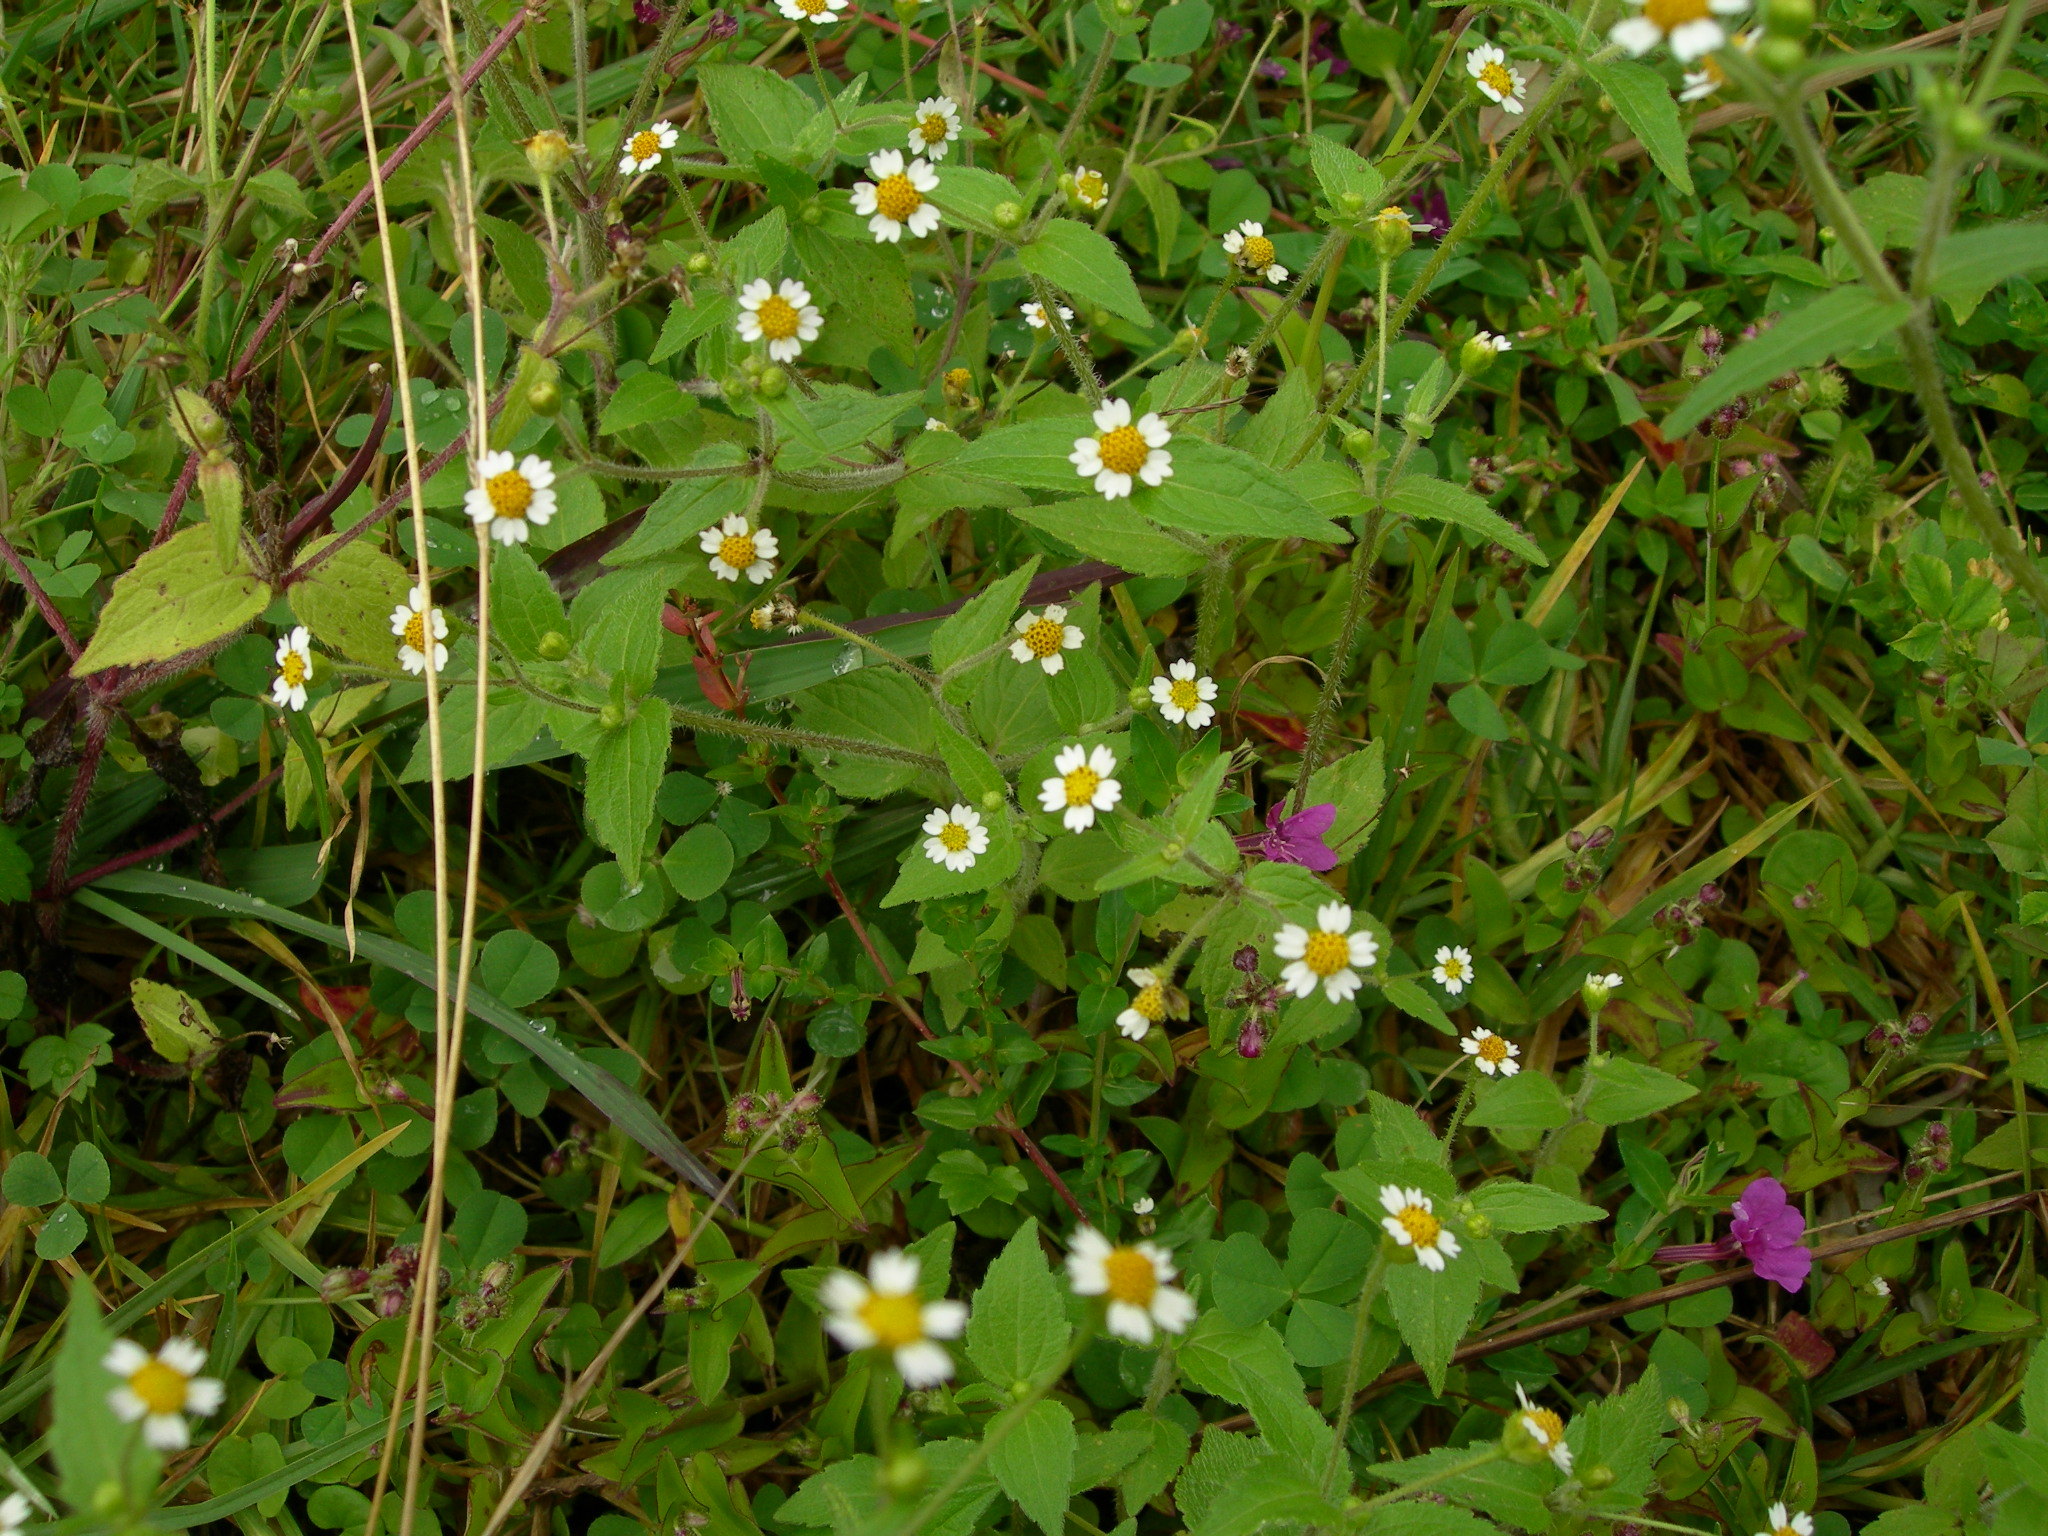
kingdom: Plantae
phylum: Tracheophyta
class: Magnoliopsida
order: Asterales
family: Asteraceae
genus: Galinsoga
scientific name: Galinsoga quadriradiata
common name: Shaggy soldier
